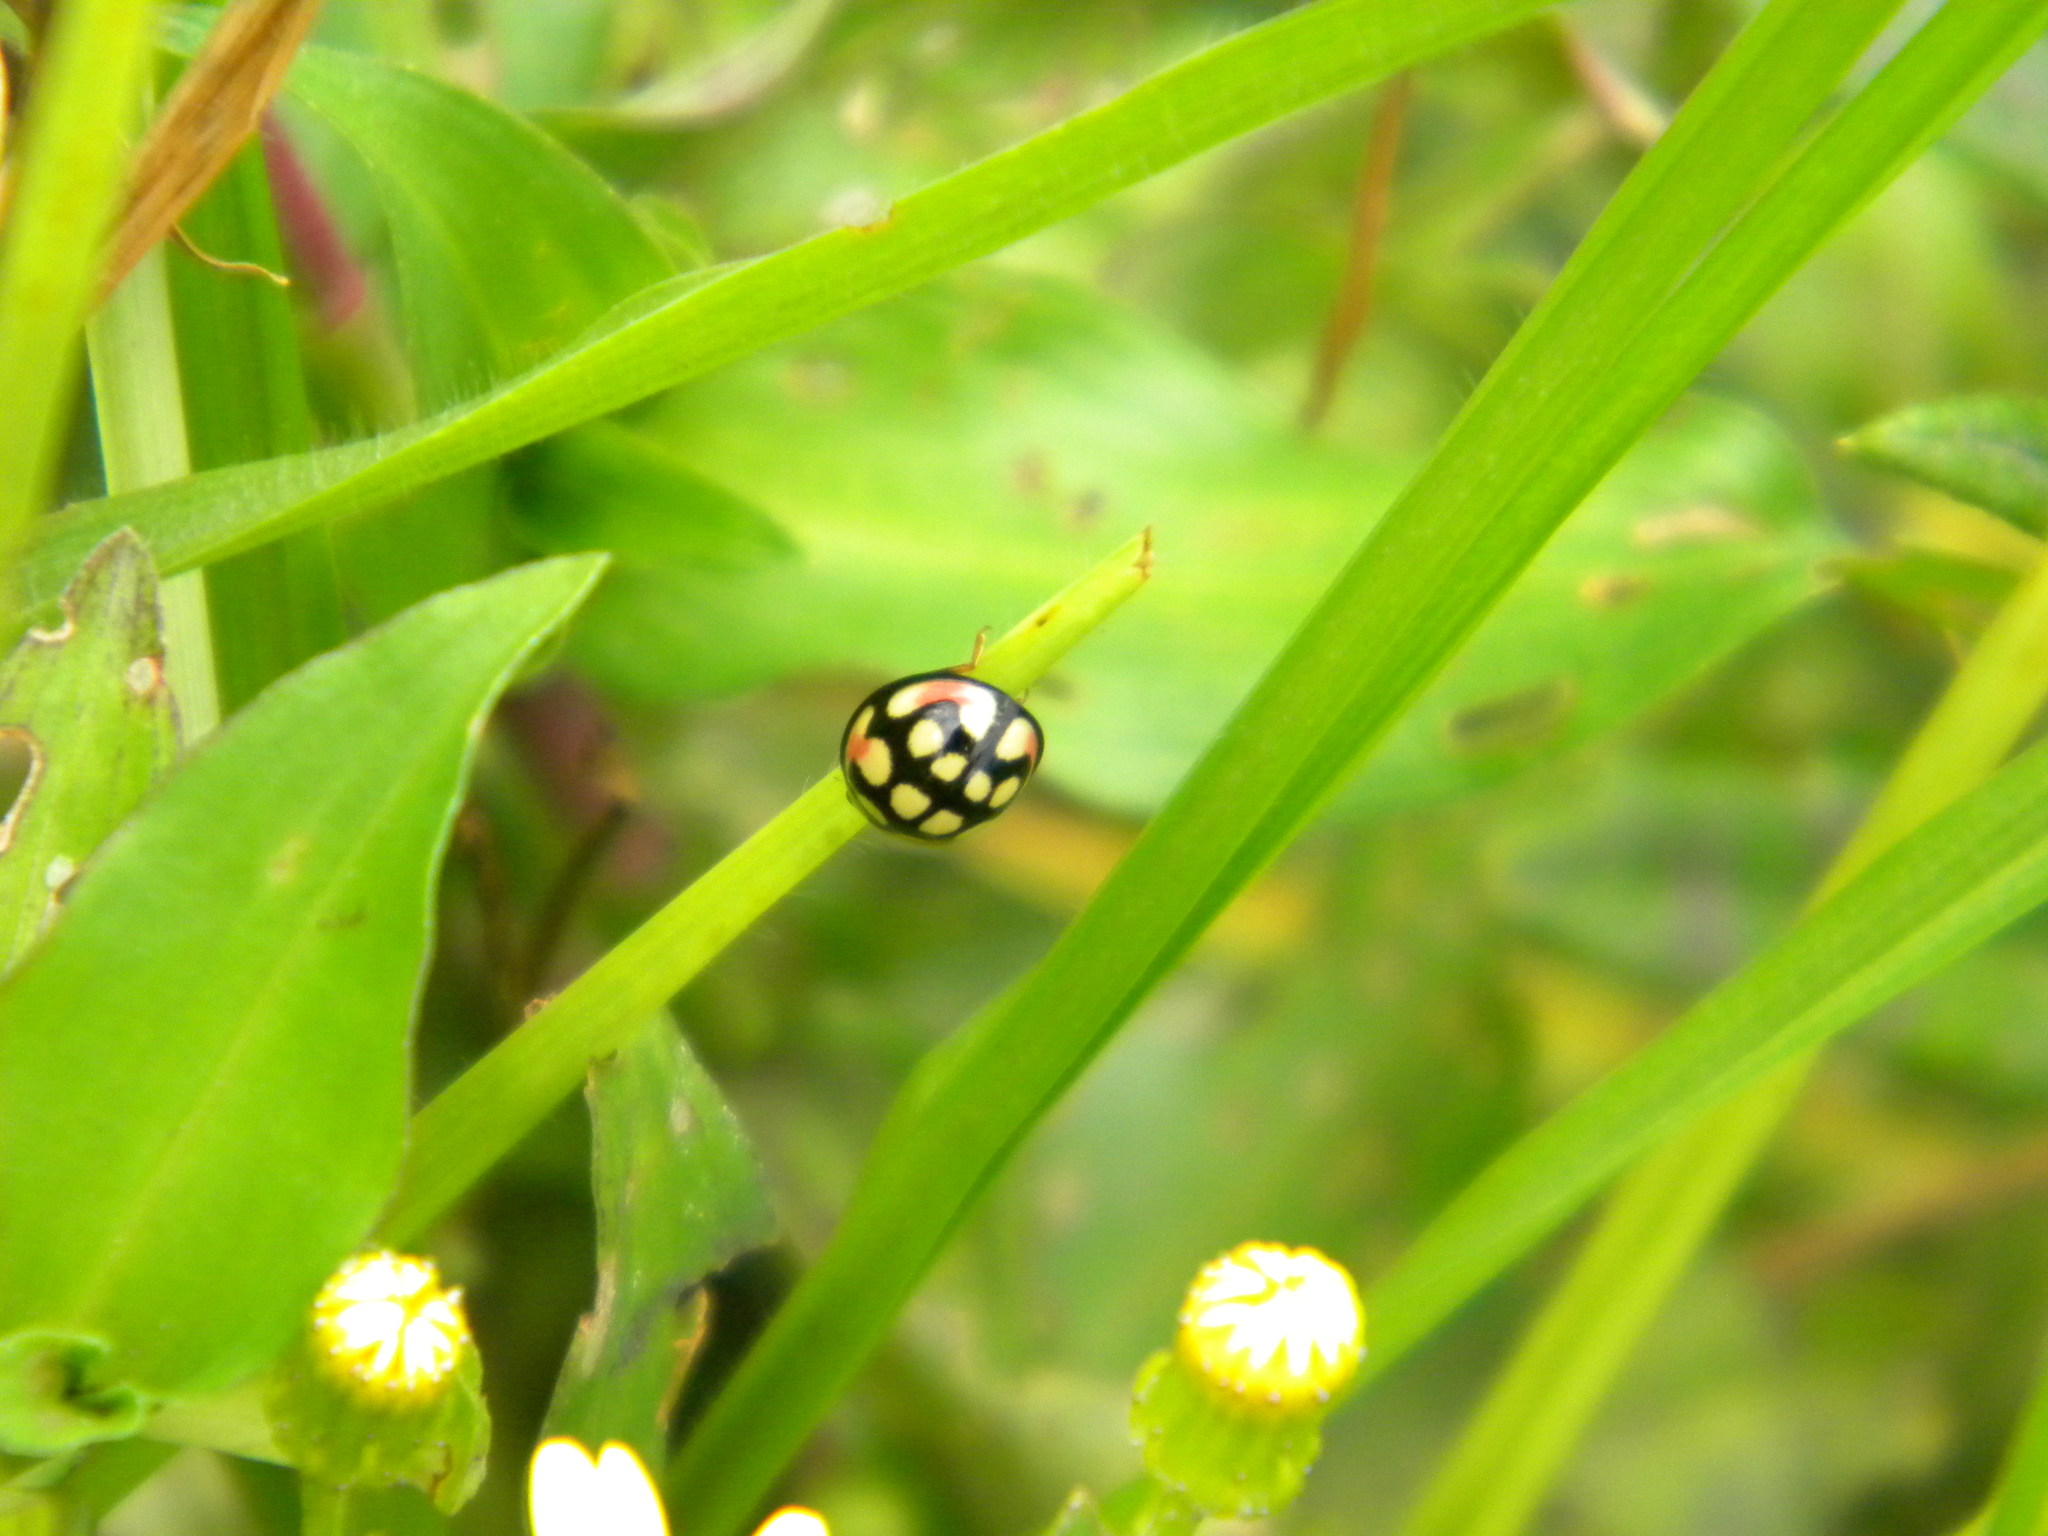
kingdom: Animalia
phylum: Arthropoda
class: Insecta
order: Coleoptera
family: Coccinellidae
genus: Cheilomenes
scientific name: Cheilomenes sulphurea
